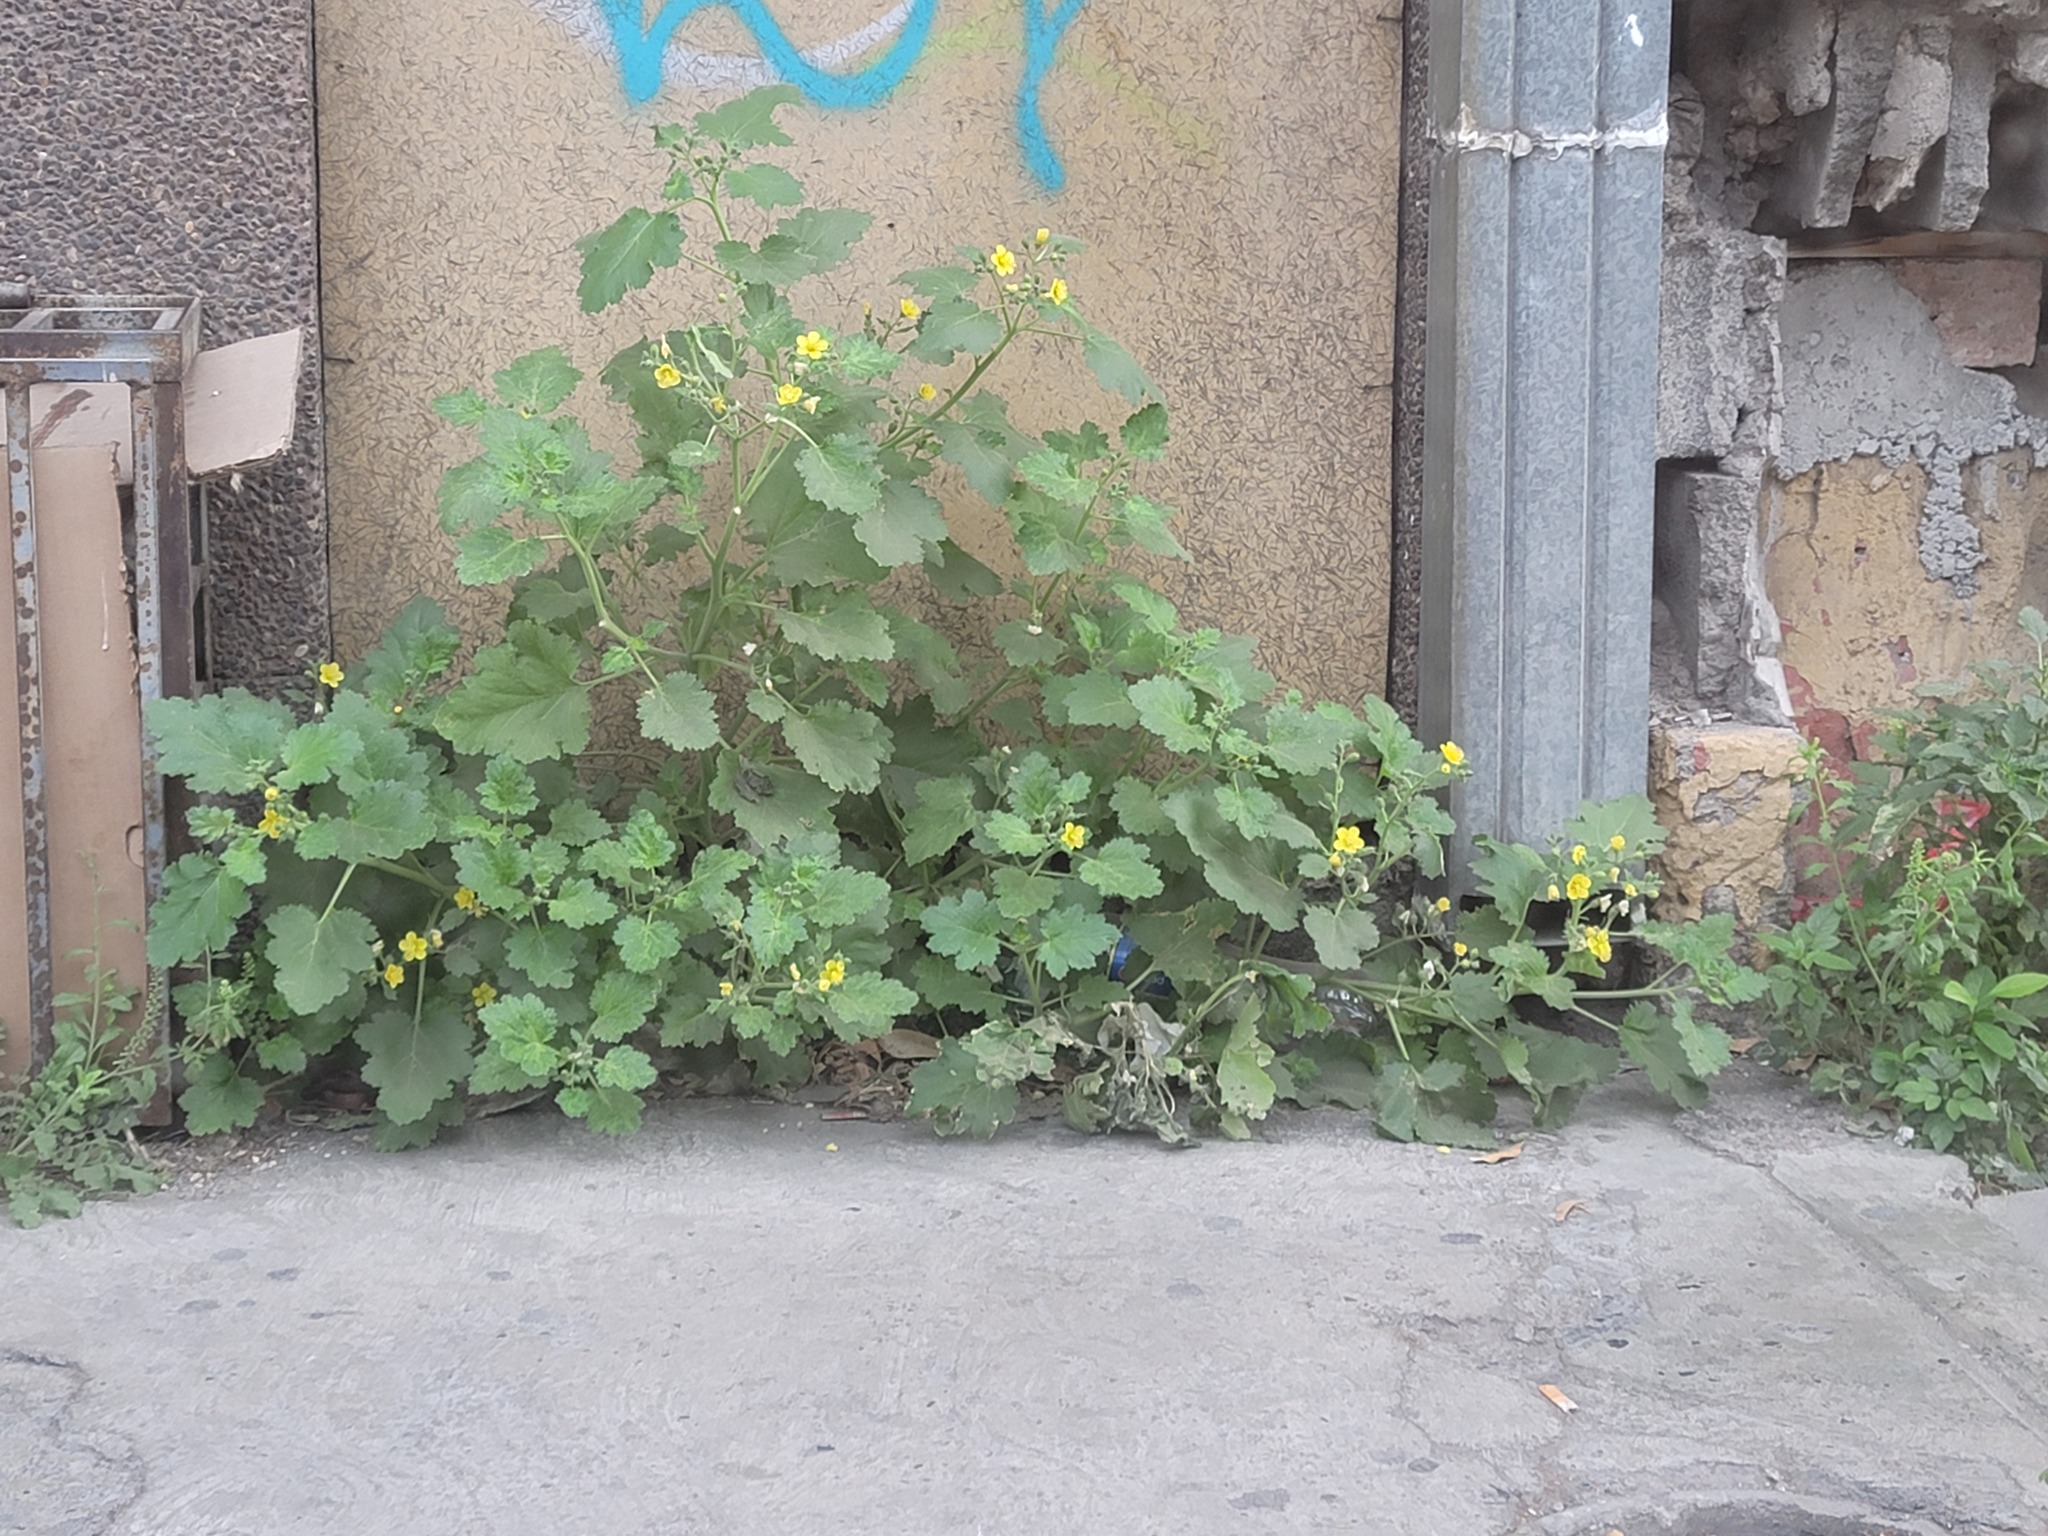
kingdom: Plantae
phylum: Tracheophyta
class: Magnoliopsida
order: Cornales
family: Loasaceae
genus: Eucnide
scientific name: Eucnide lobata
